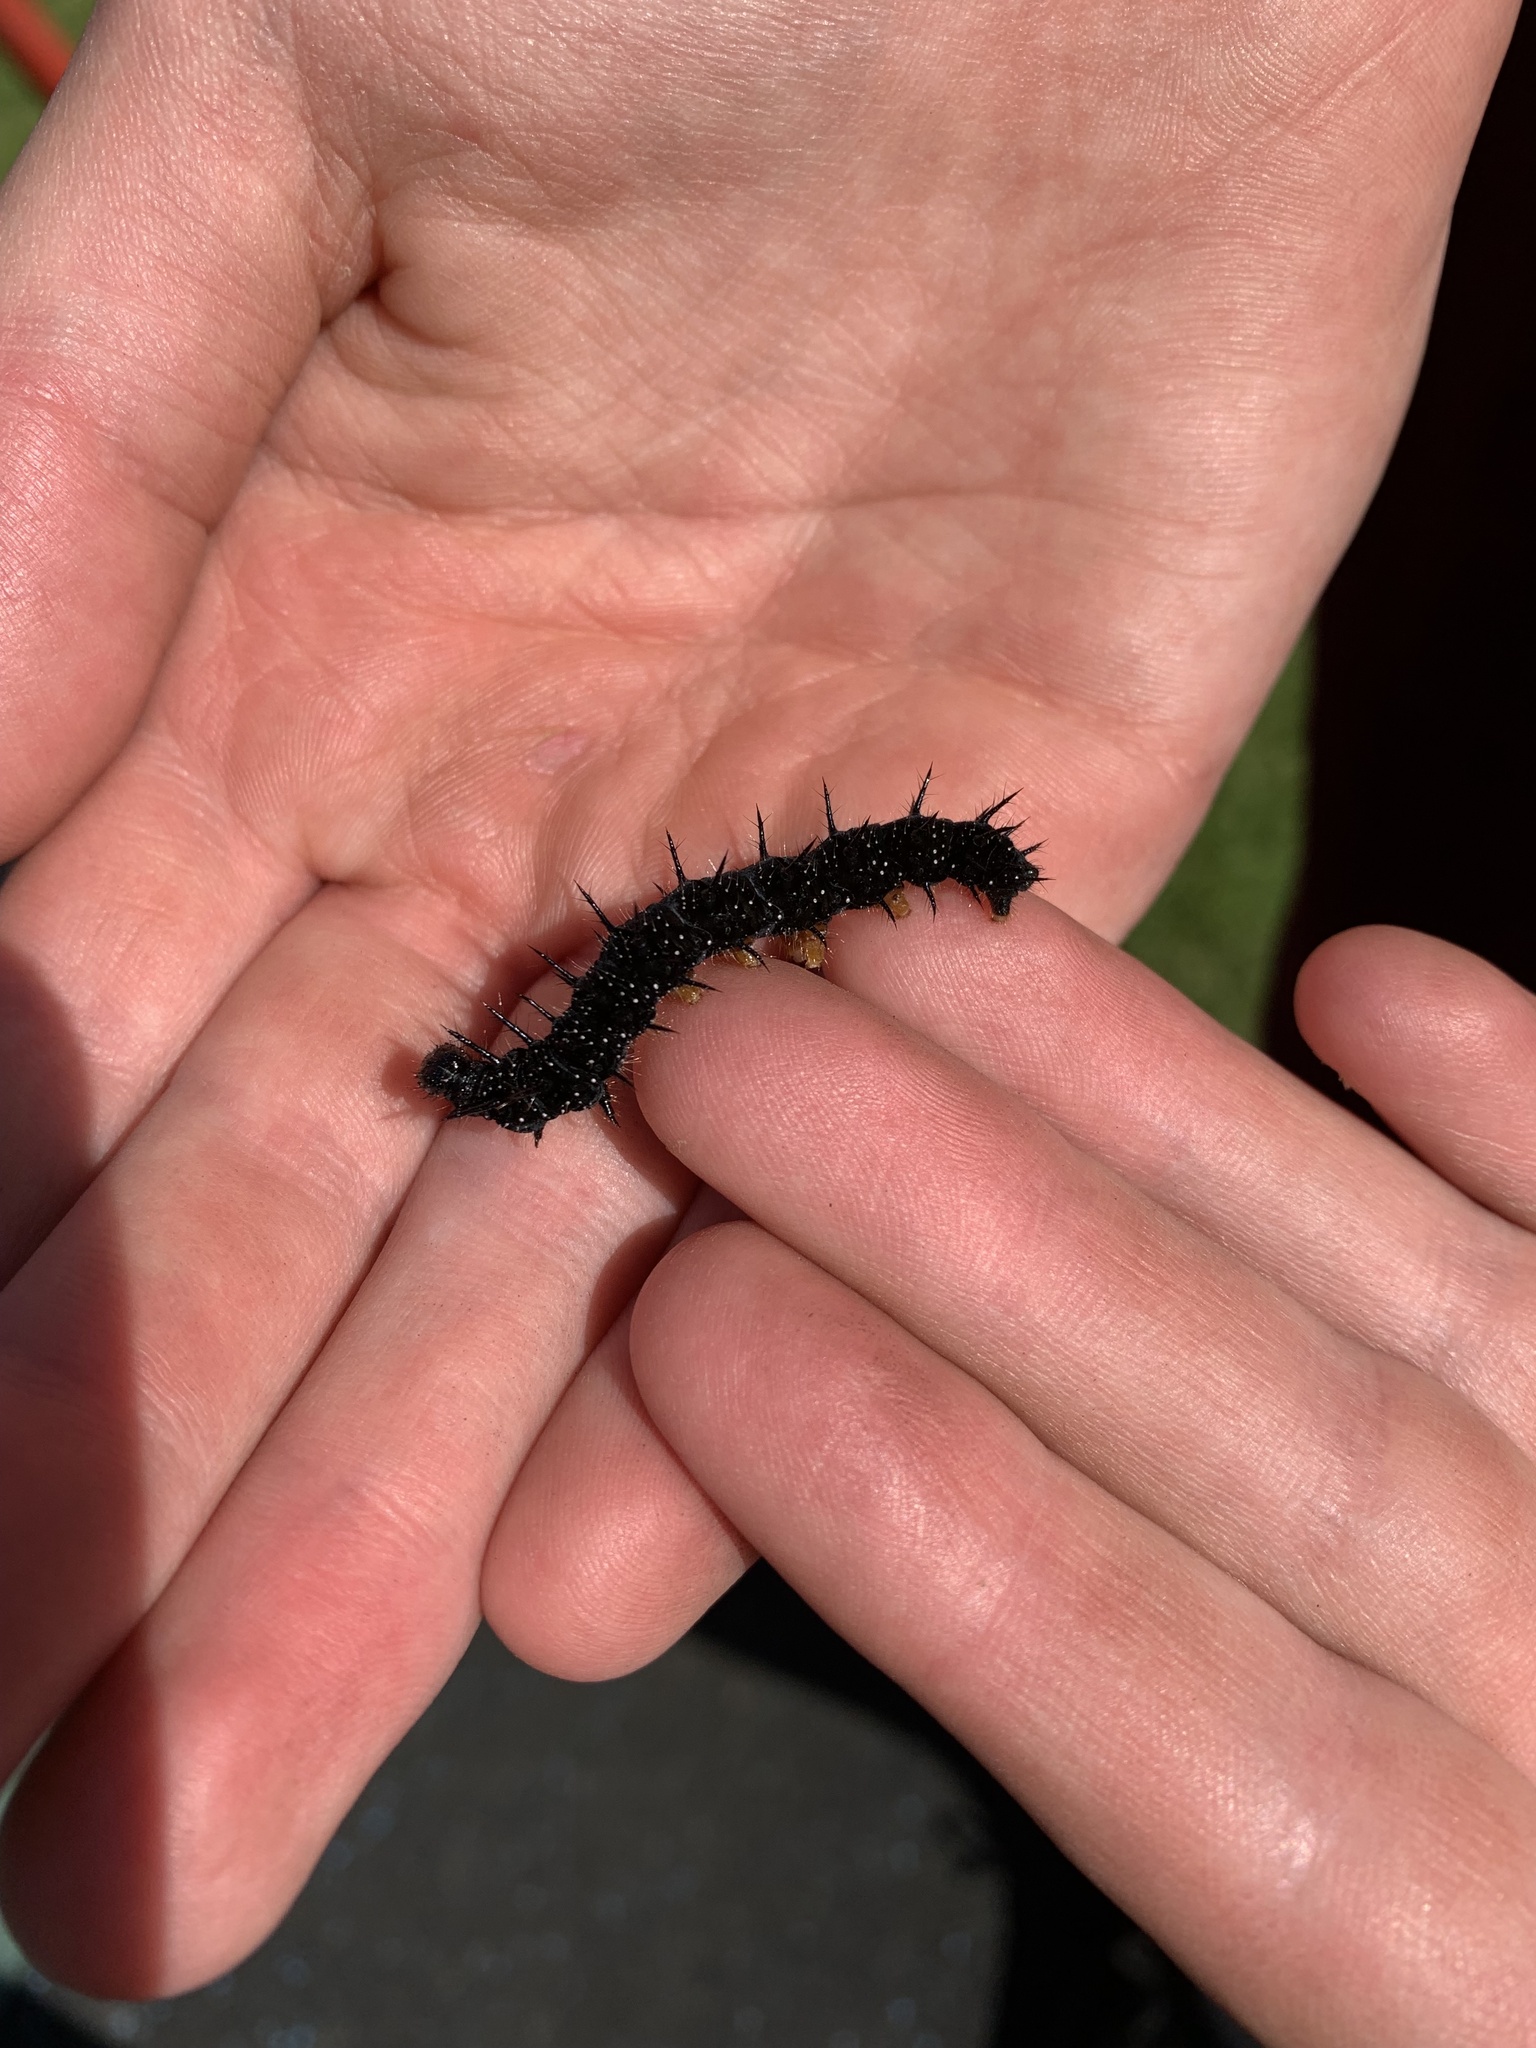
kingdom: Animalia
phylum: Arthropoda
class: Insecta
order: Lepidoptera
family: Nymphalidae
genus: Aglais
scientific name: Aglais io
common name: Peacock
